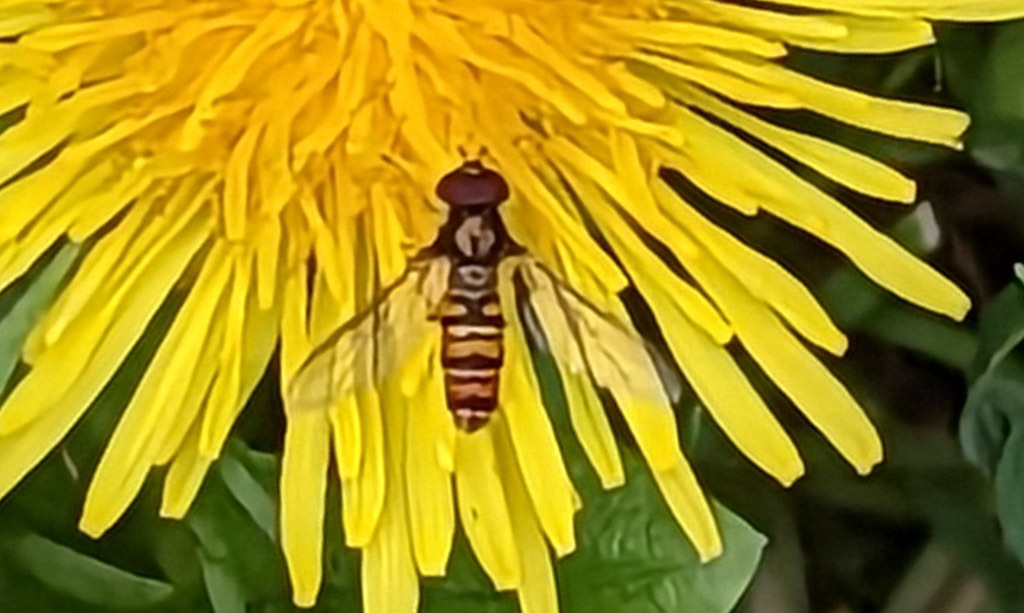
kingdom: Animalia
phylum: Arthropoda
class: Insecta
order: Diptera
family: Syrphidae
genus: Episyrphus
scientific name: Episyrphus balteatus
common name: Marmalade hoverfly
